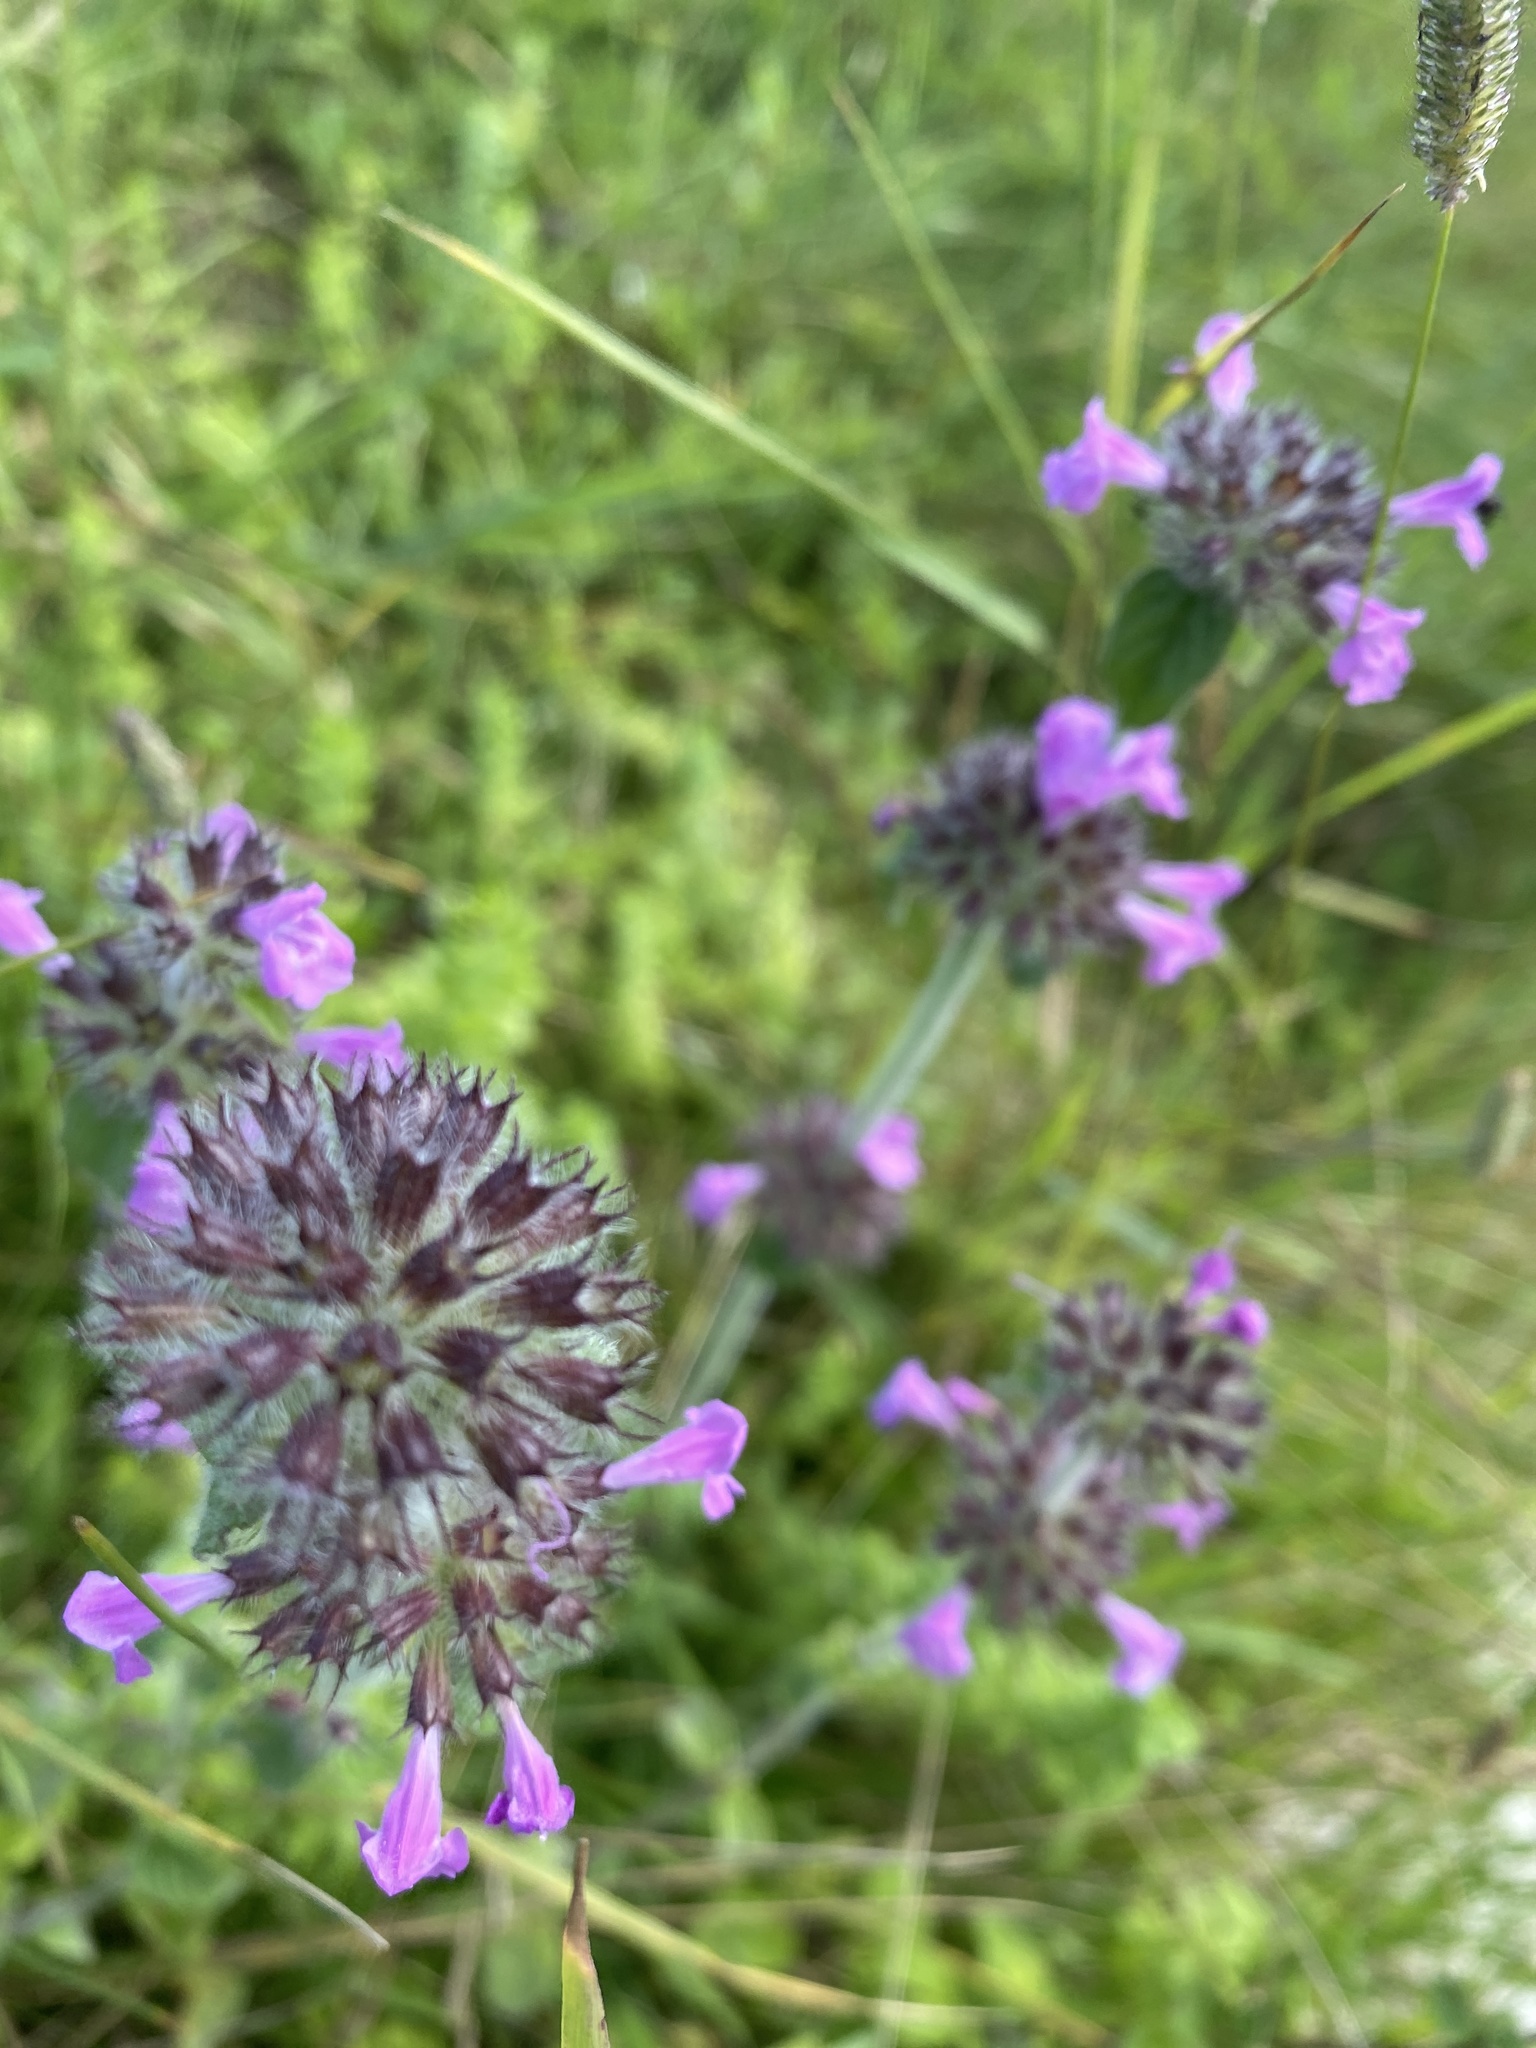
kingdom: Plantae
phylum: Tracheophyta
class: Magnoliopsida
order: Lamiales
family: Lamiaceae
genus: Clinopodium
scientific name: Clinopodium vulgare
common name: Wild basil
